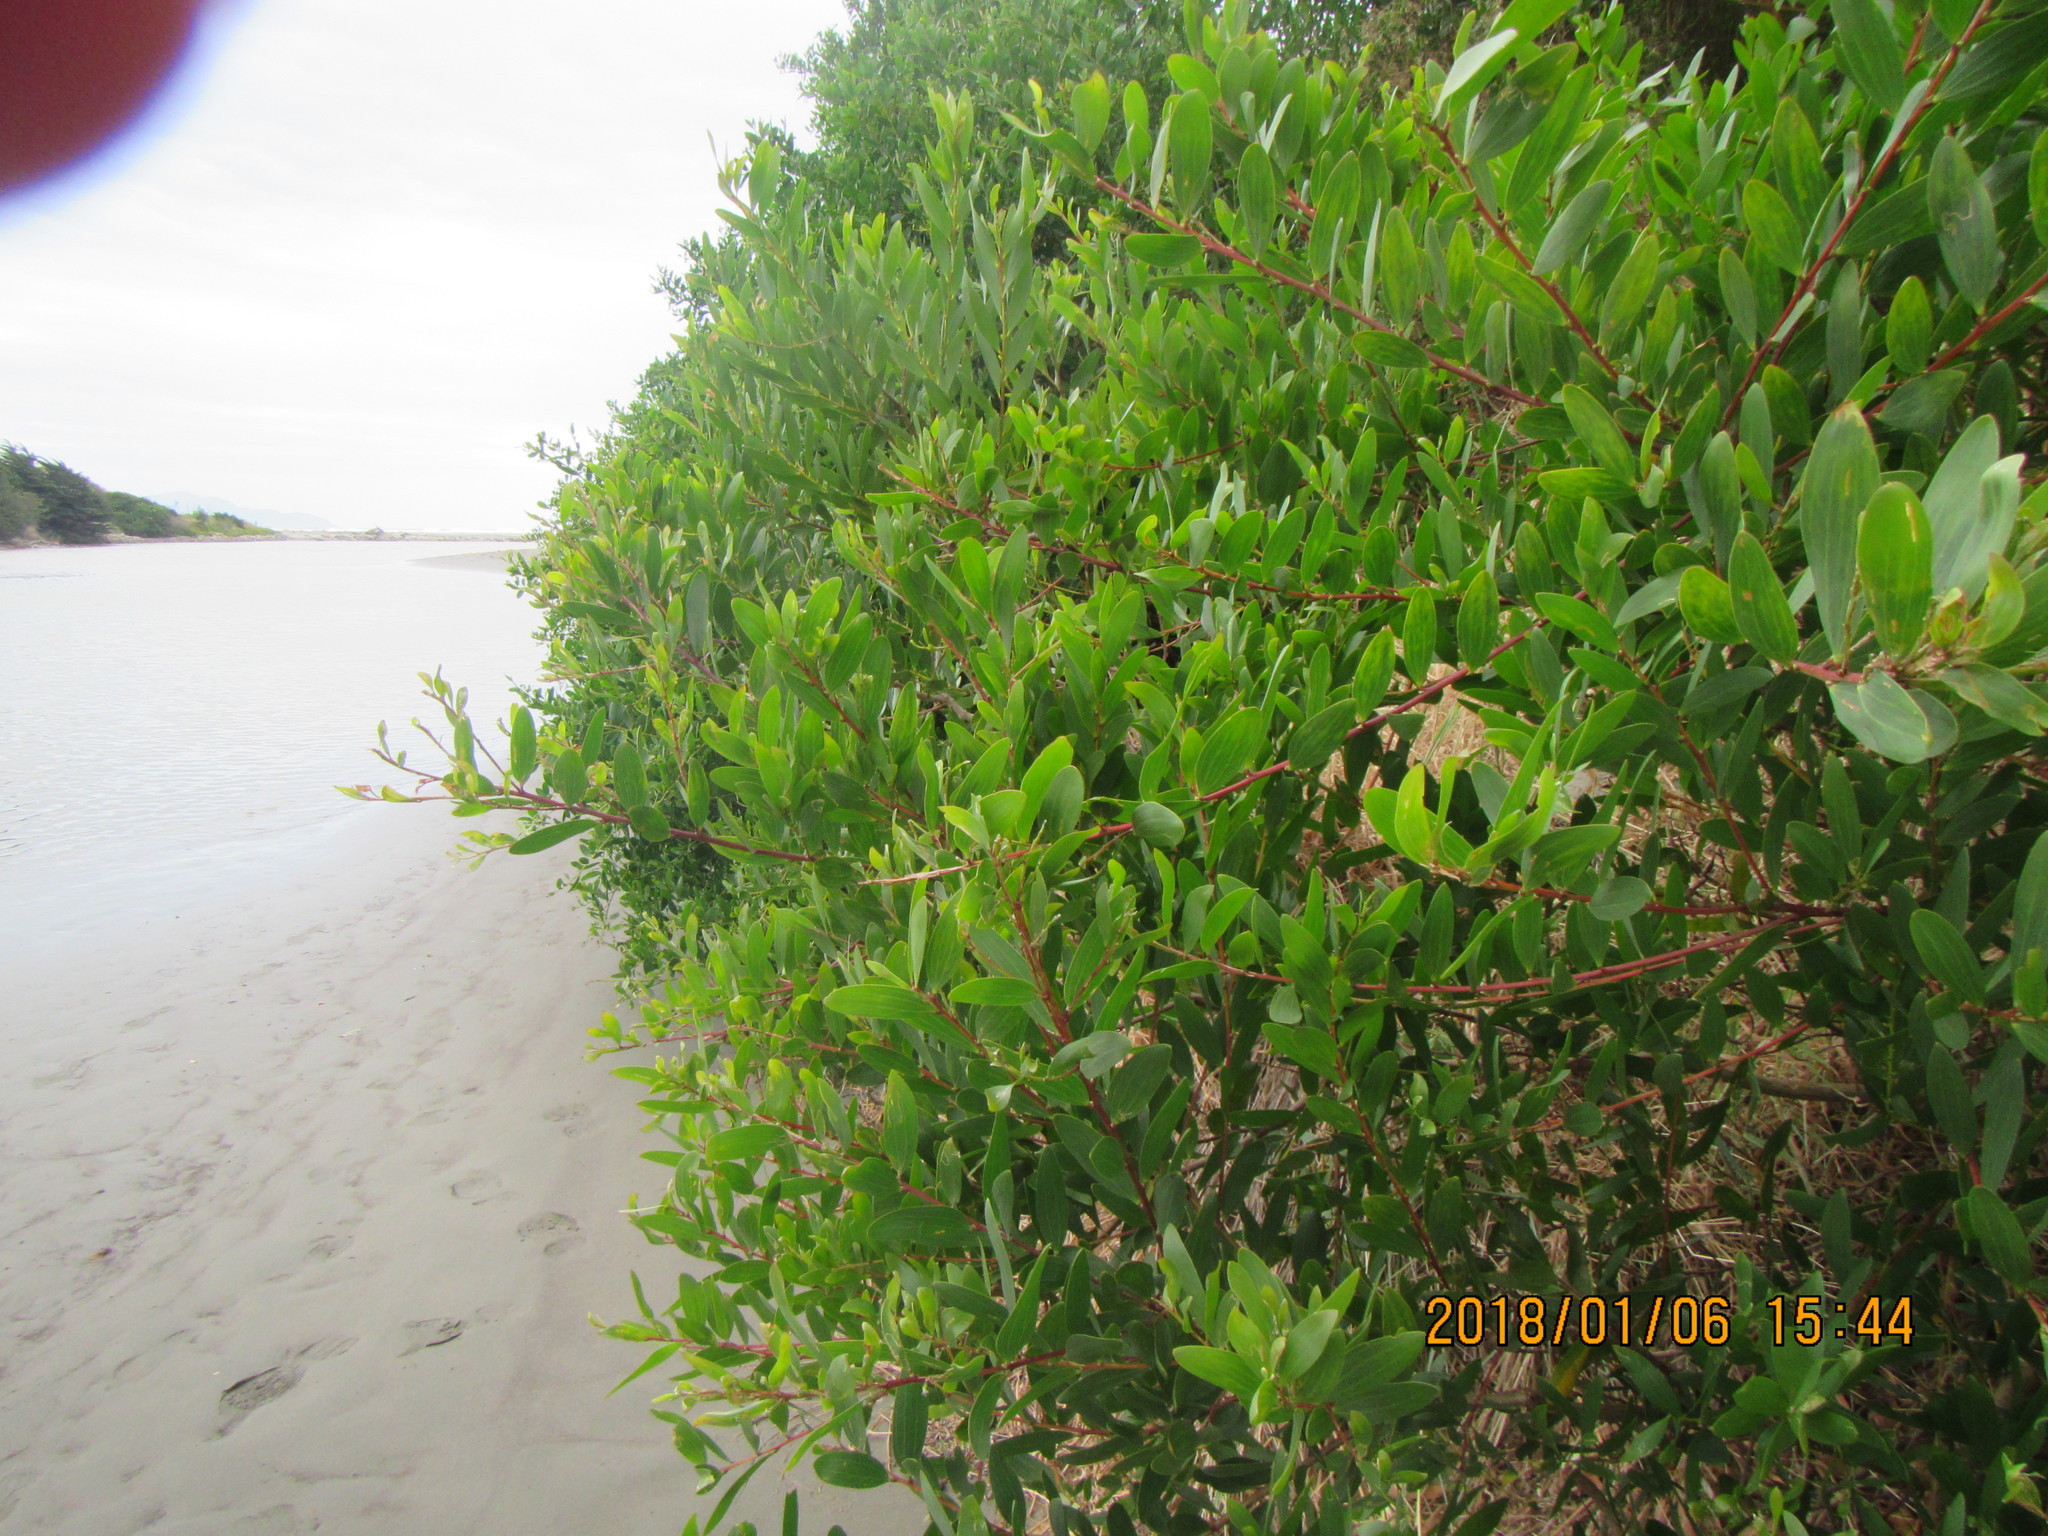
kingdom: Plantae
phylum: Tracheophyta
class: Magnoliopsida
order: Fabales
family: Fabaceae
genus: Acacia
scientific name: Acacia longifolia
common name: Sydney golden wattle
